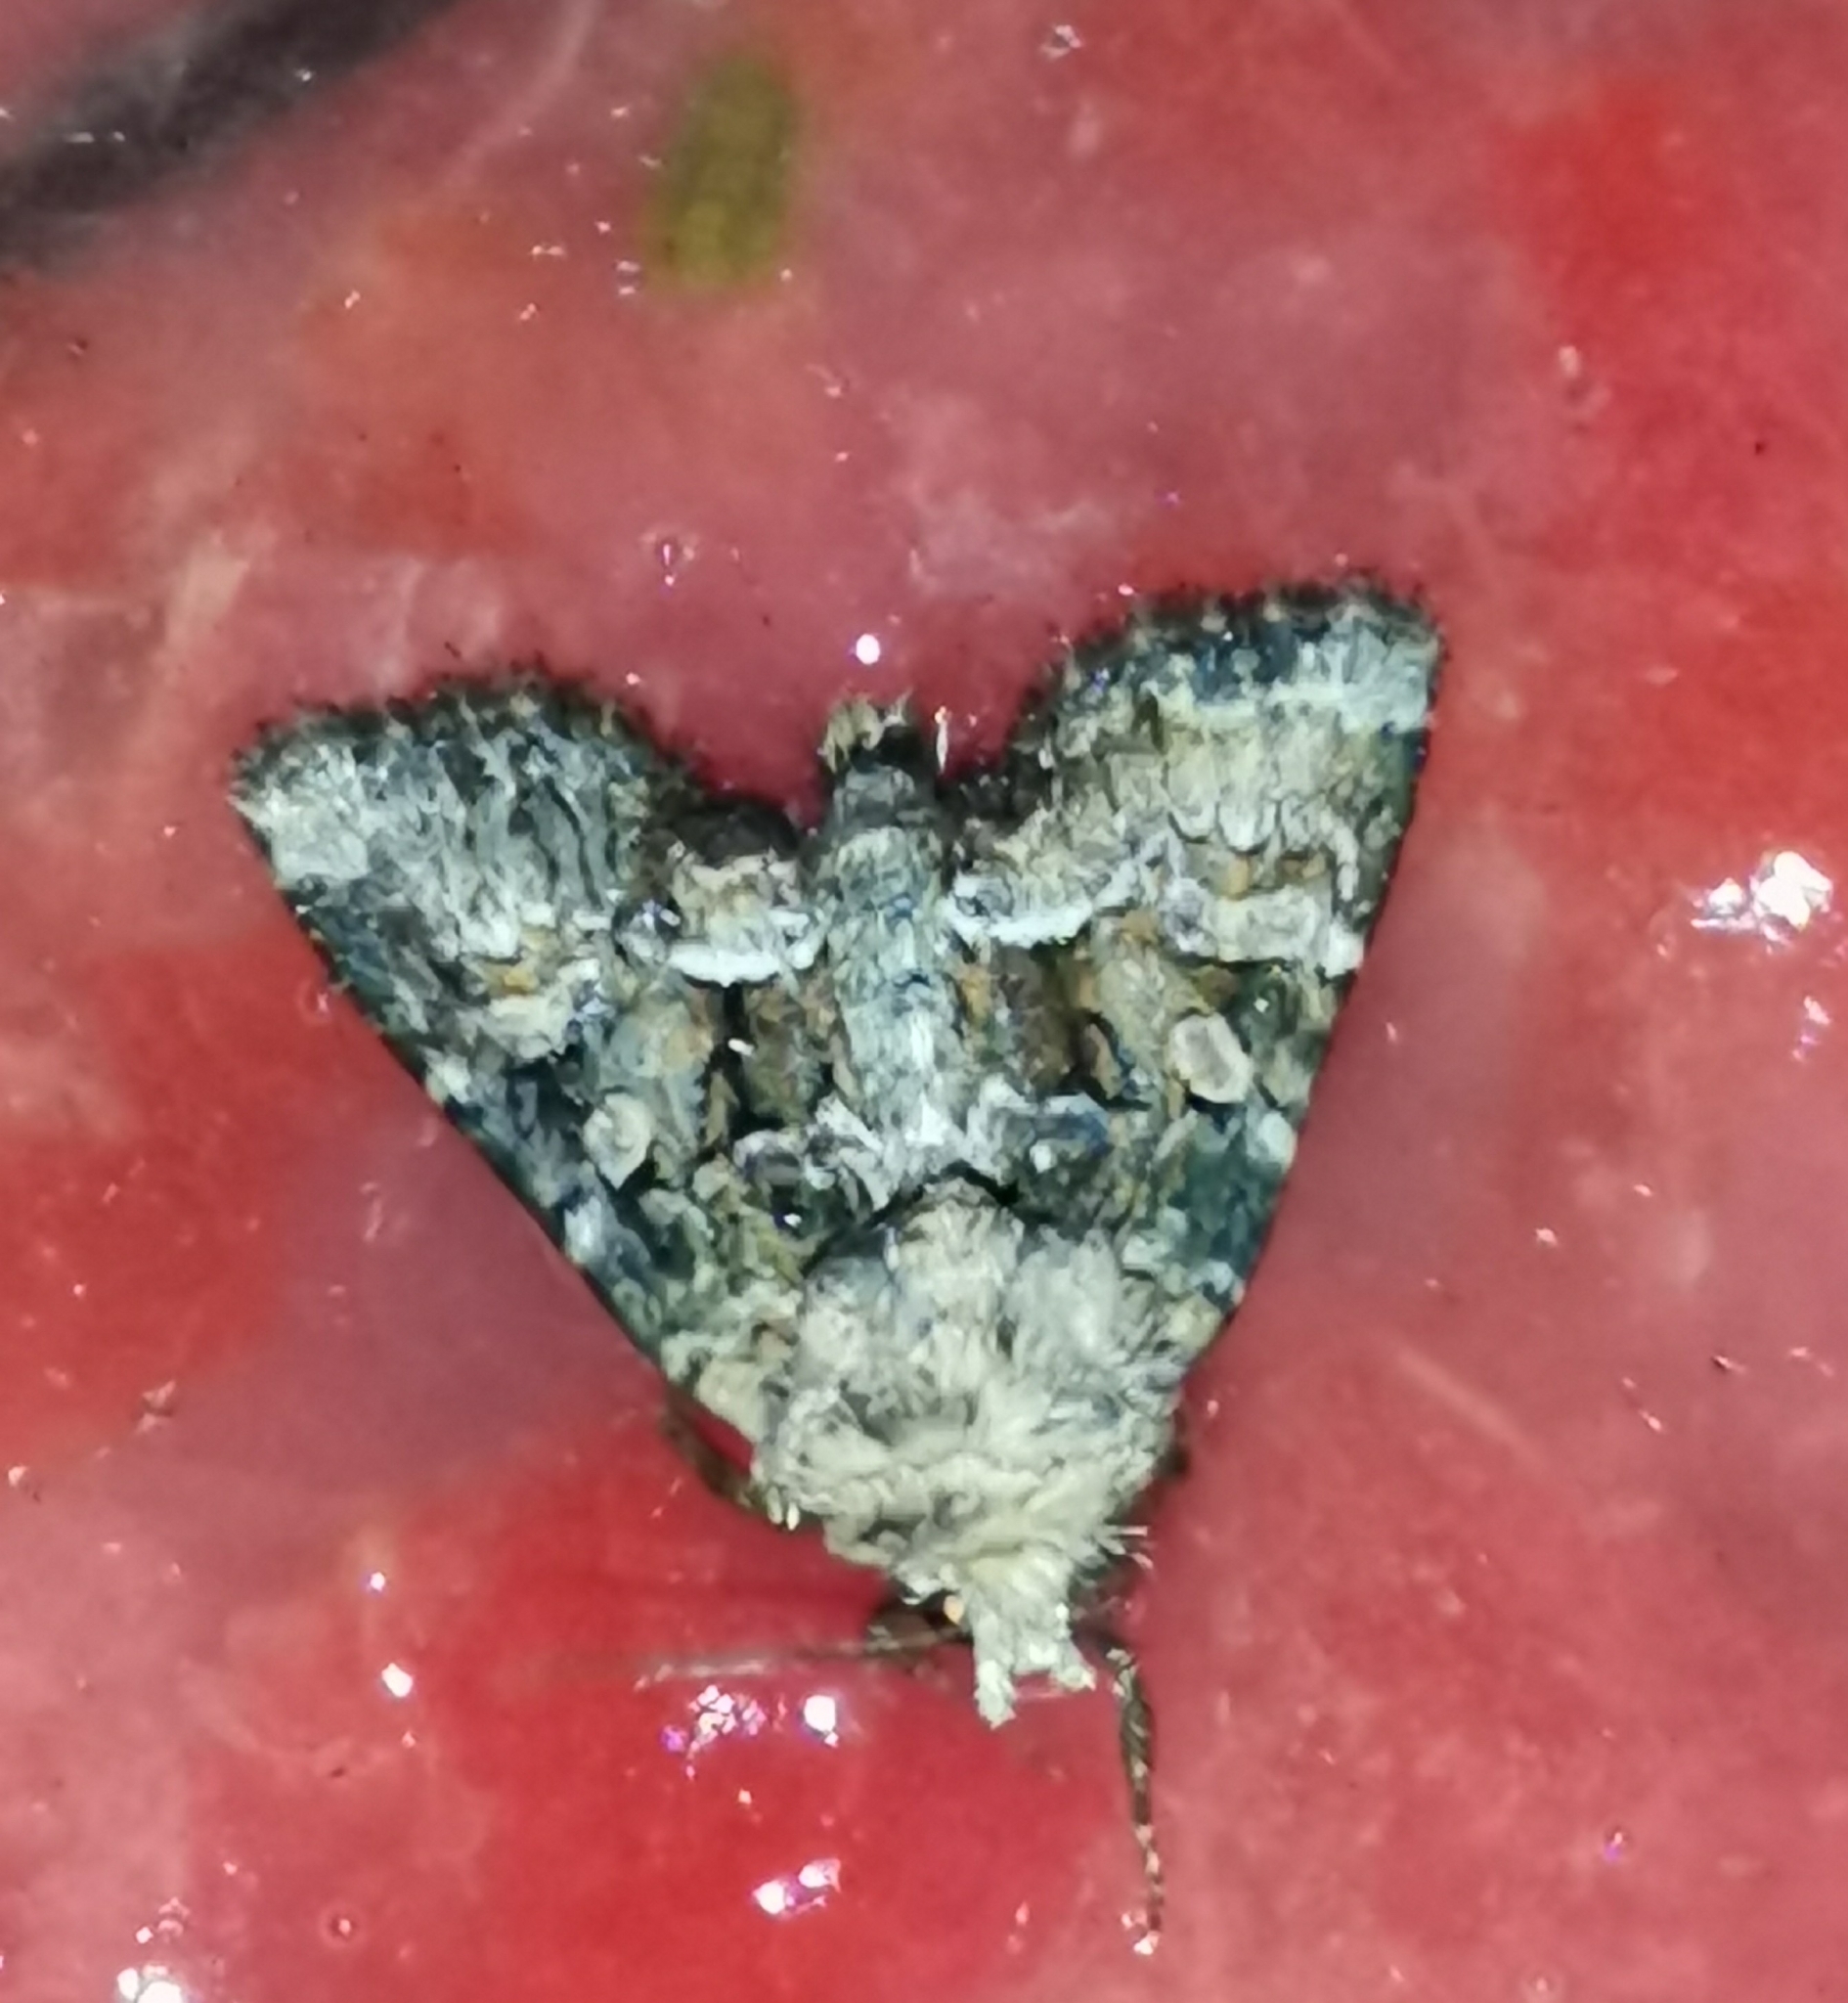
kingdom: Animalia
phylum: Arthropoda
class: Insecta
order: Lepidoptera
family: Noctuidae
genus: Oligia
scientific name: Oligia latruncula
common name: Tawny marbled minor
